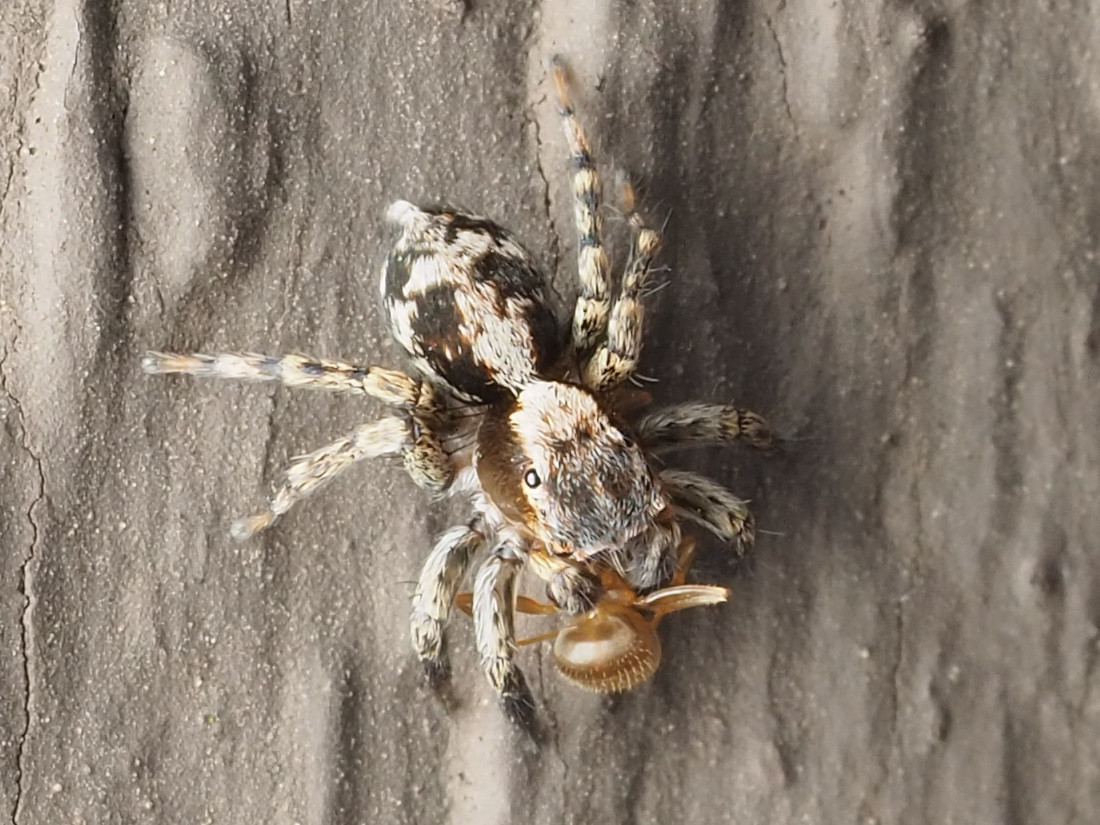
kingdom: Animalia
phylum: Arthropoda
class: Arachnida
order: Araneae
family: Salticidae
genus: Naphrys
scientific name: Naphrys pulex
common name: Flea jumping spider
